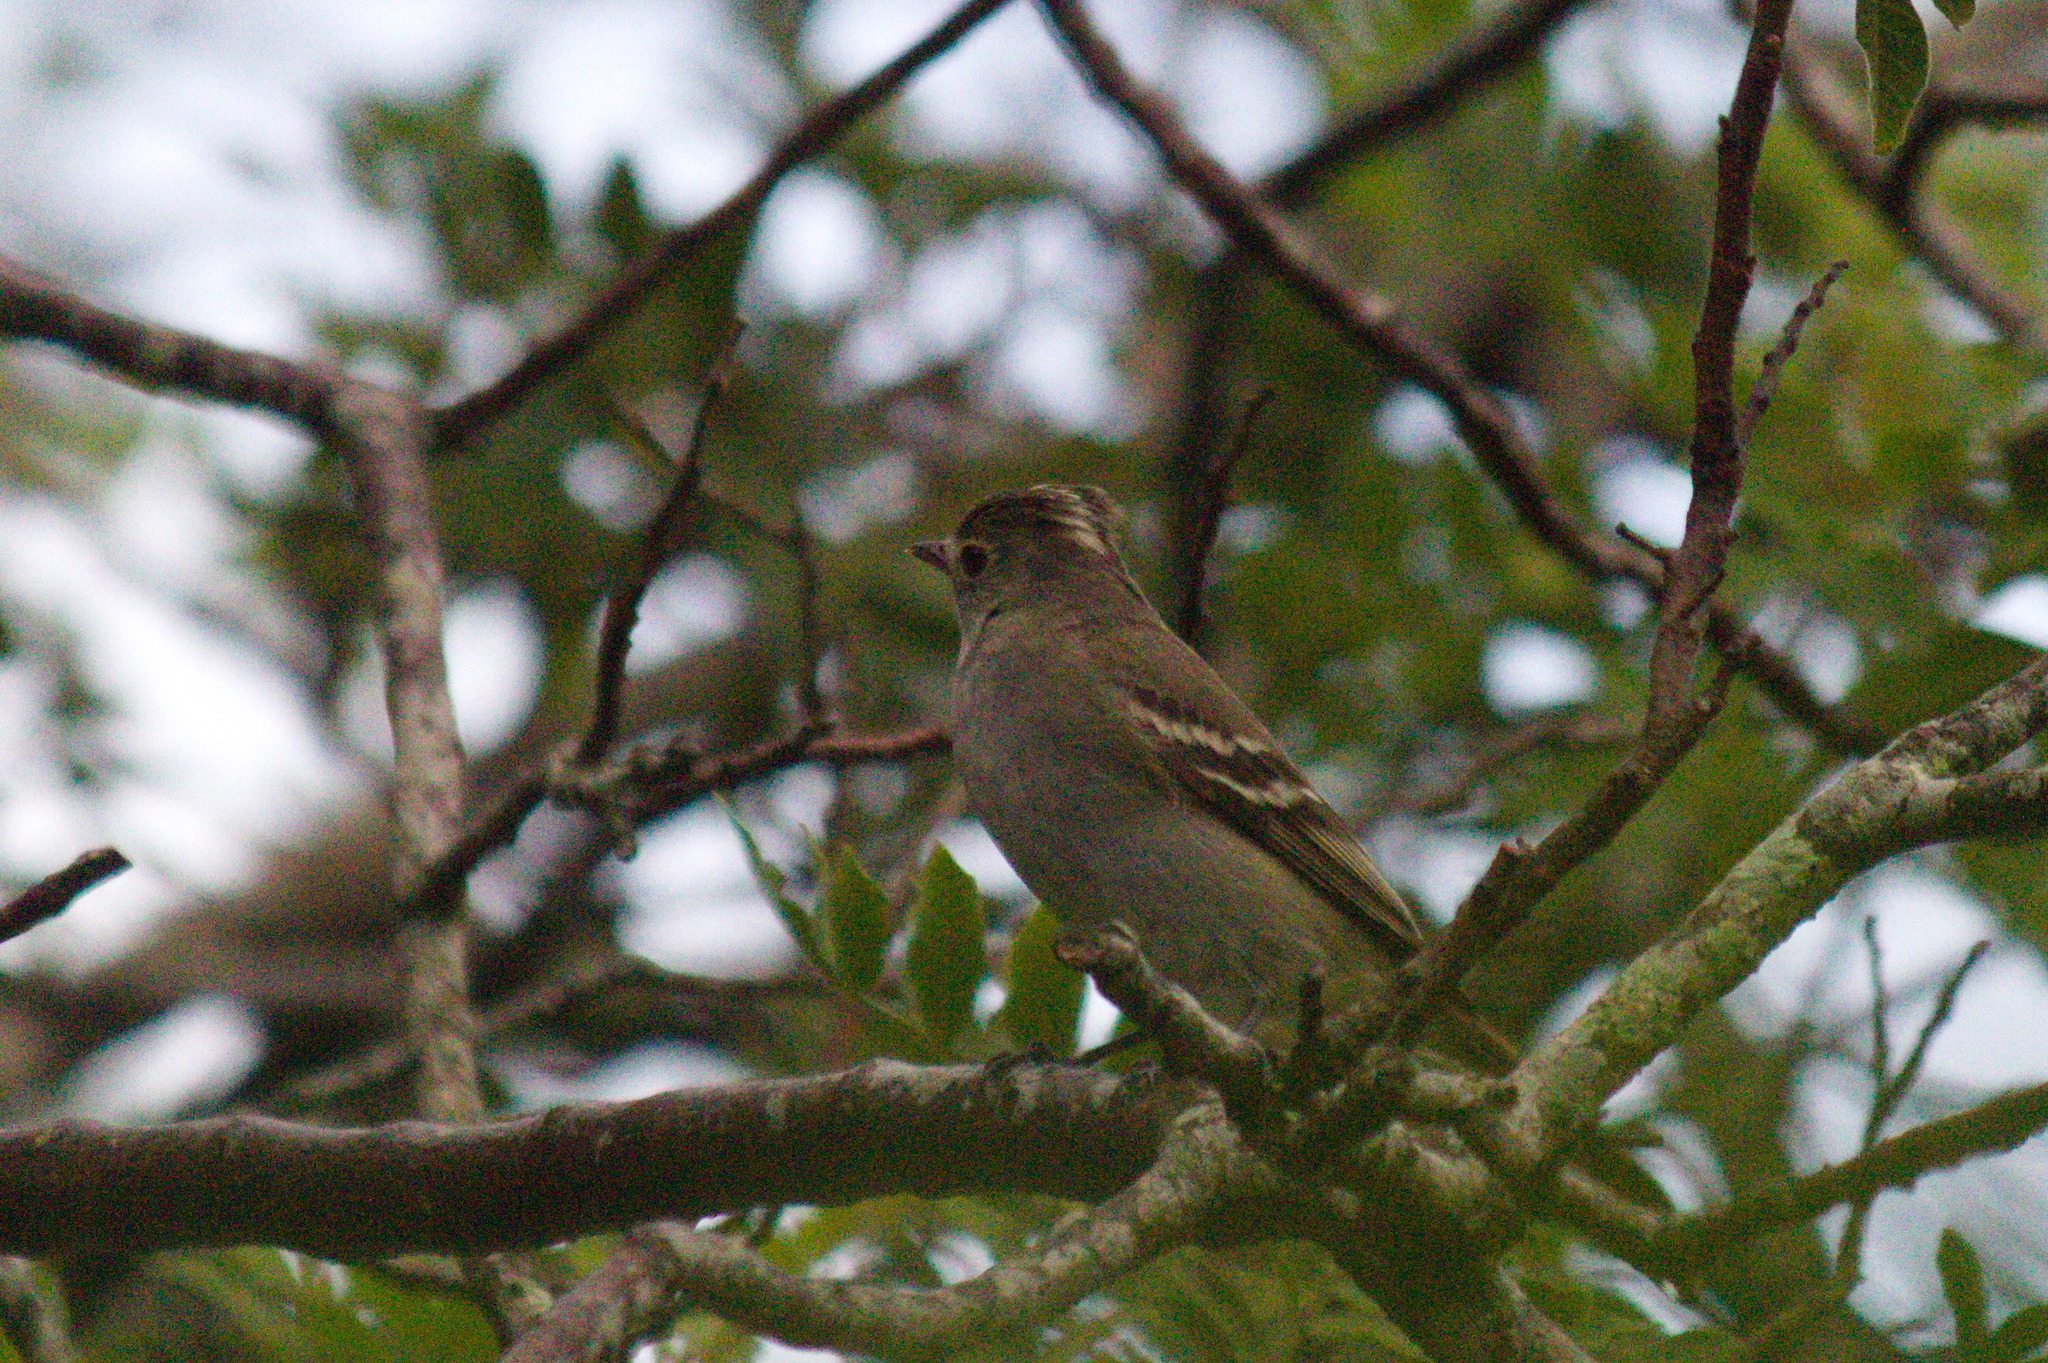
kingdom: Animalia
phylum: Chordata
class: Aves
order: Passeriformes
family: Tyrannidae
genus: Elaenia
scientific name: Elaenia albiceps
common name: White-crested elaenia
